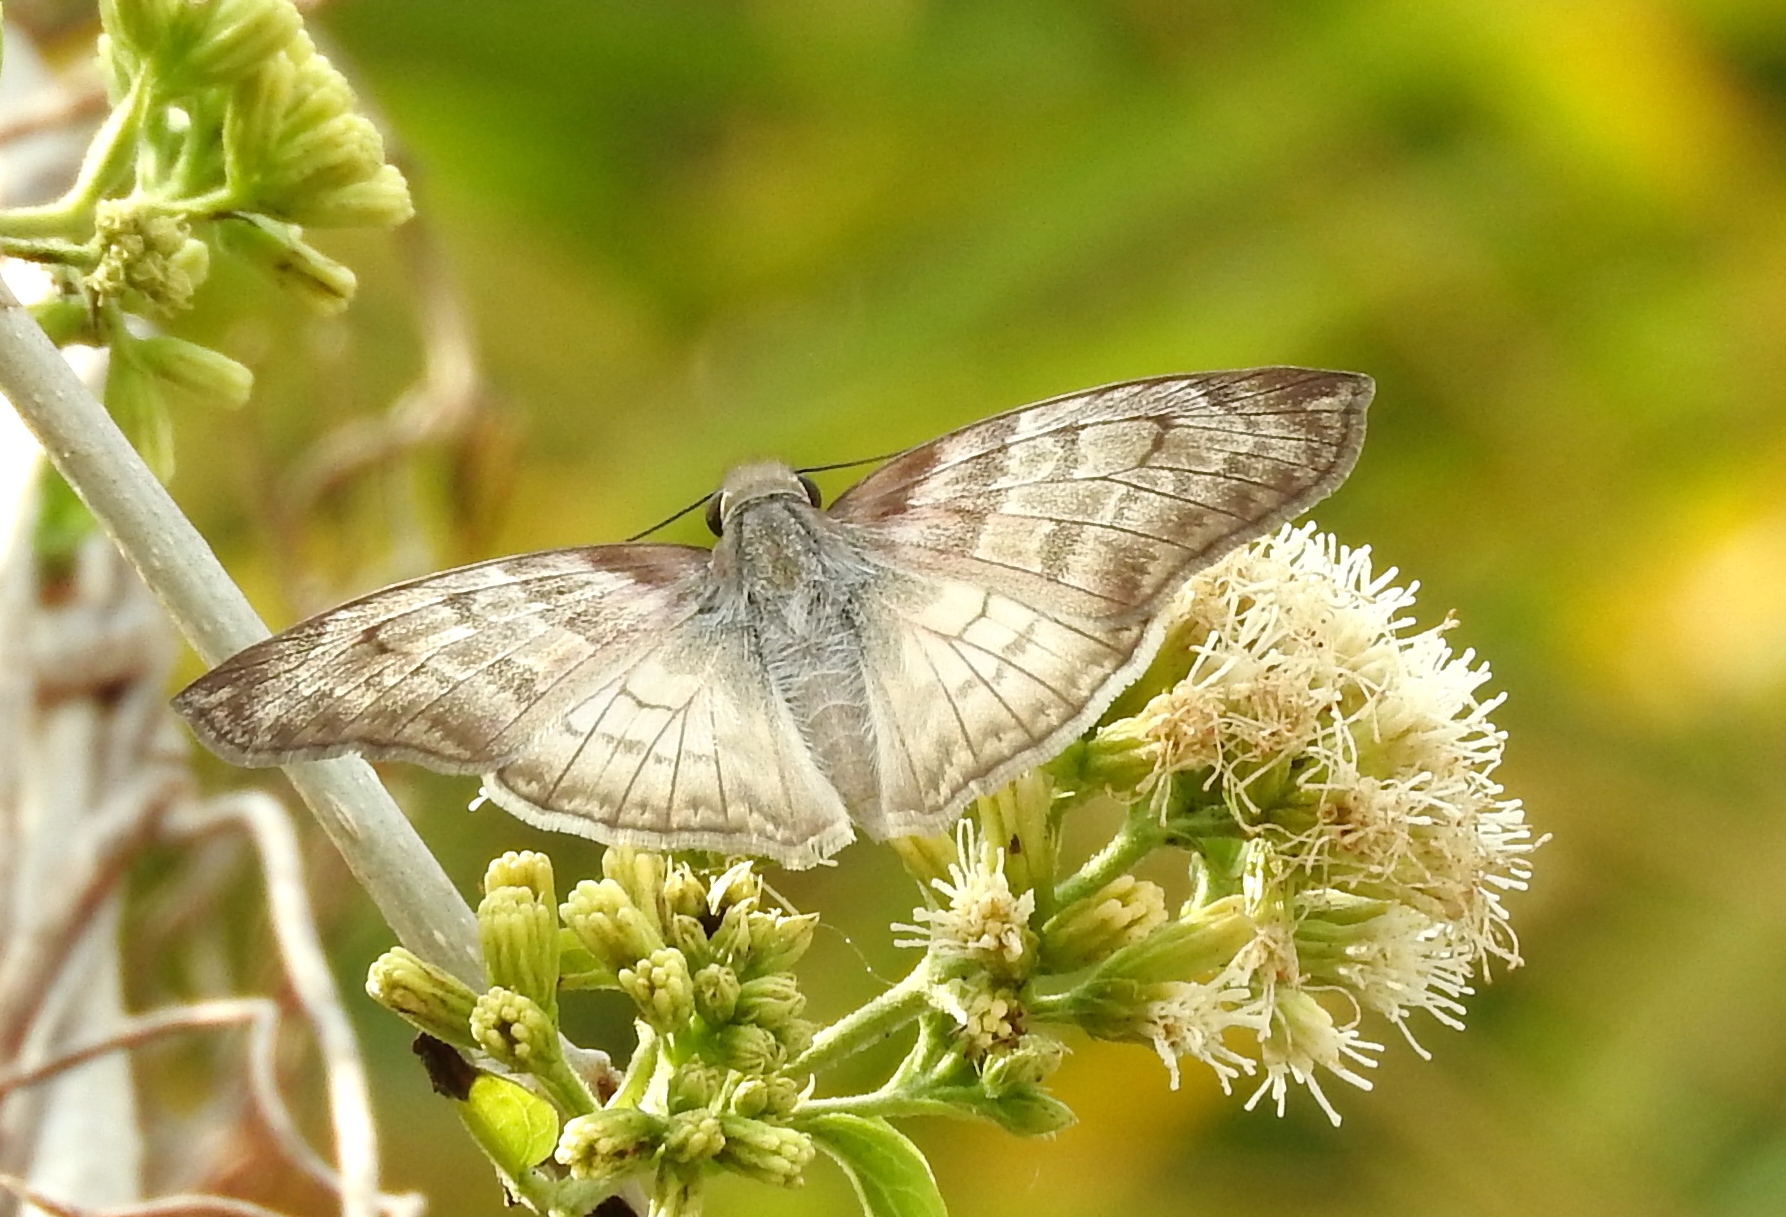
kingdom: Animalia
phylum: Arthropoda
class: Insecta
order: Lepidoptera
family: Hesperiidae
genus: Mylon
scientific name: Mylon pelopidas
